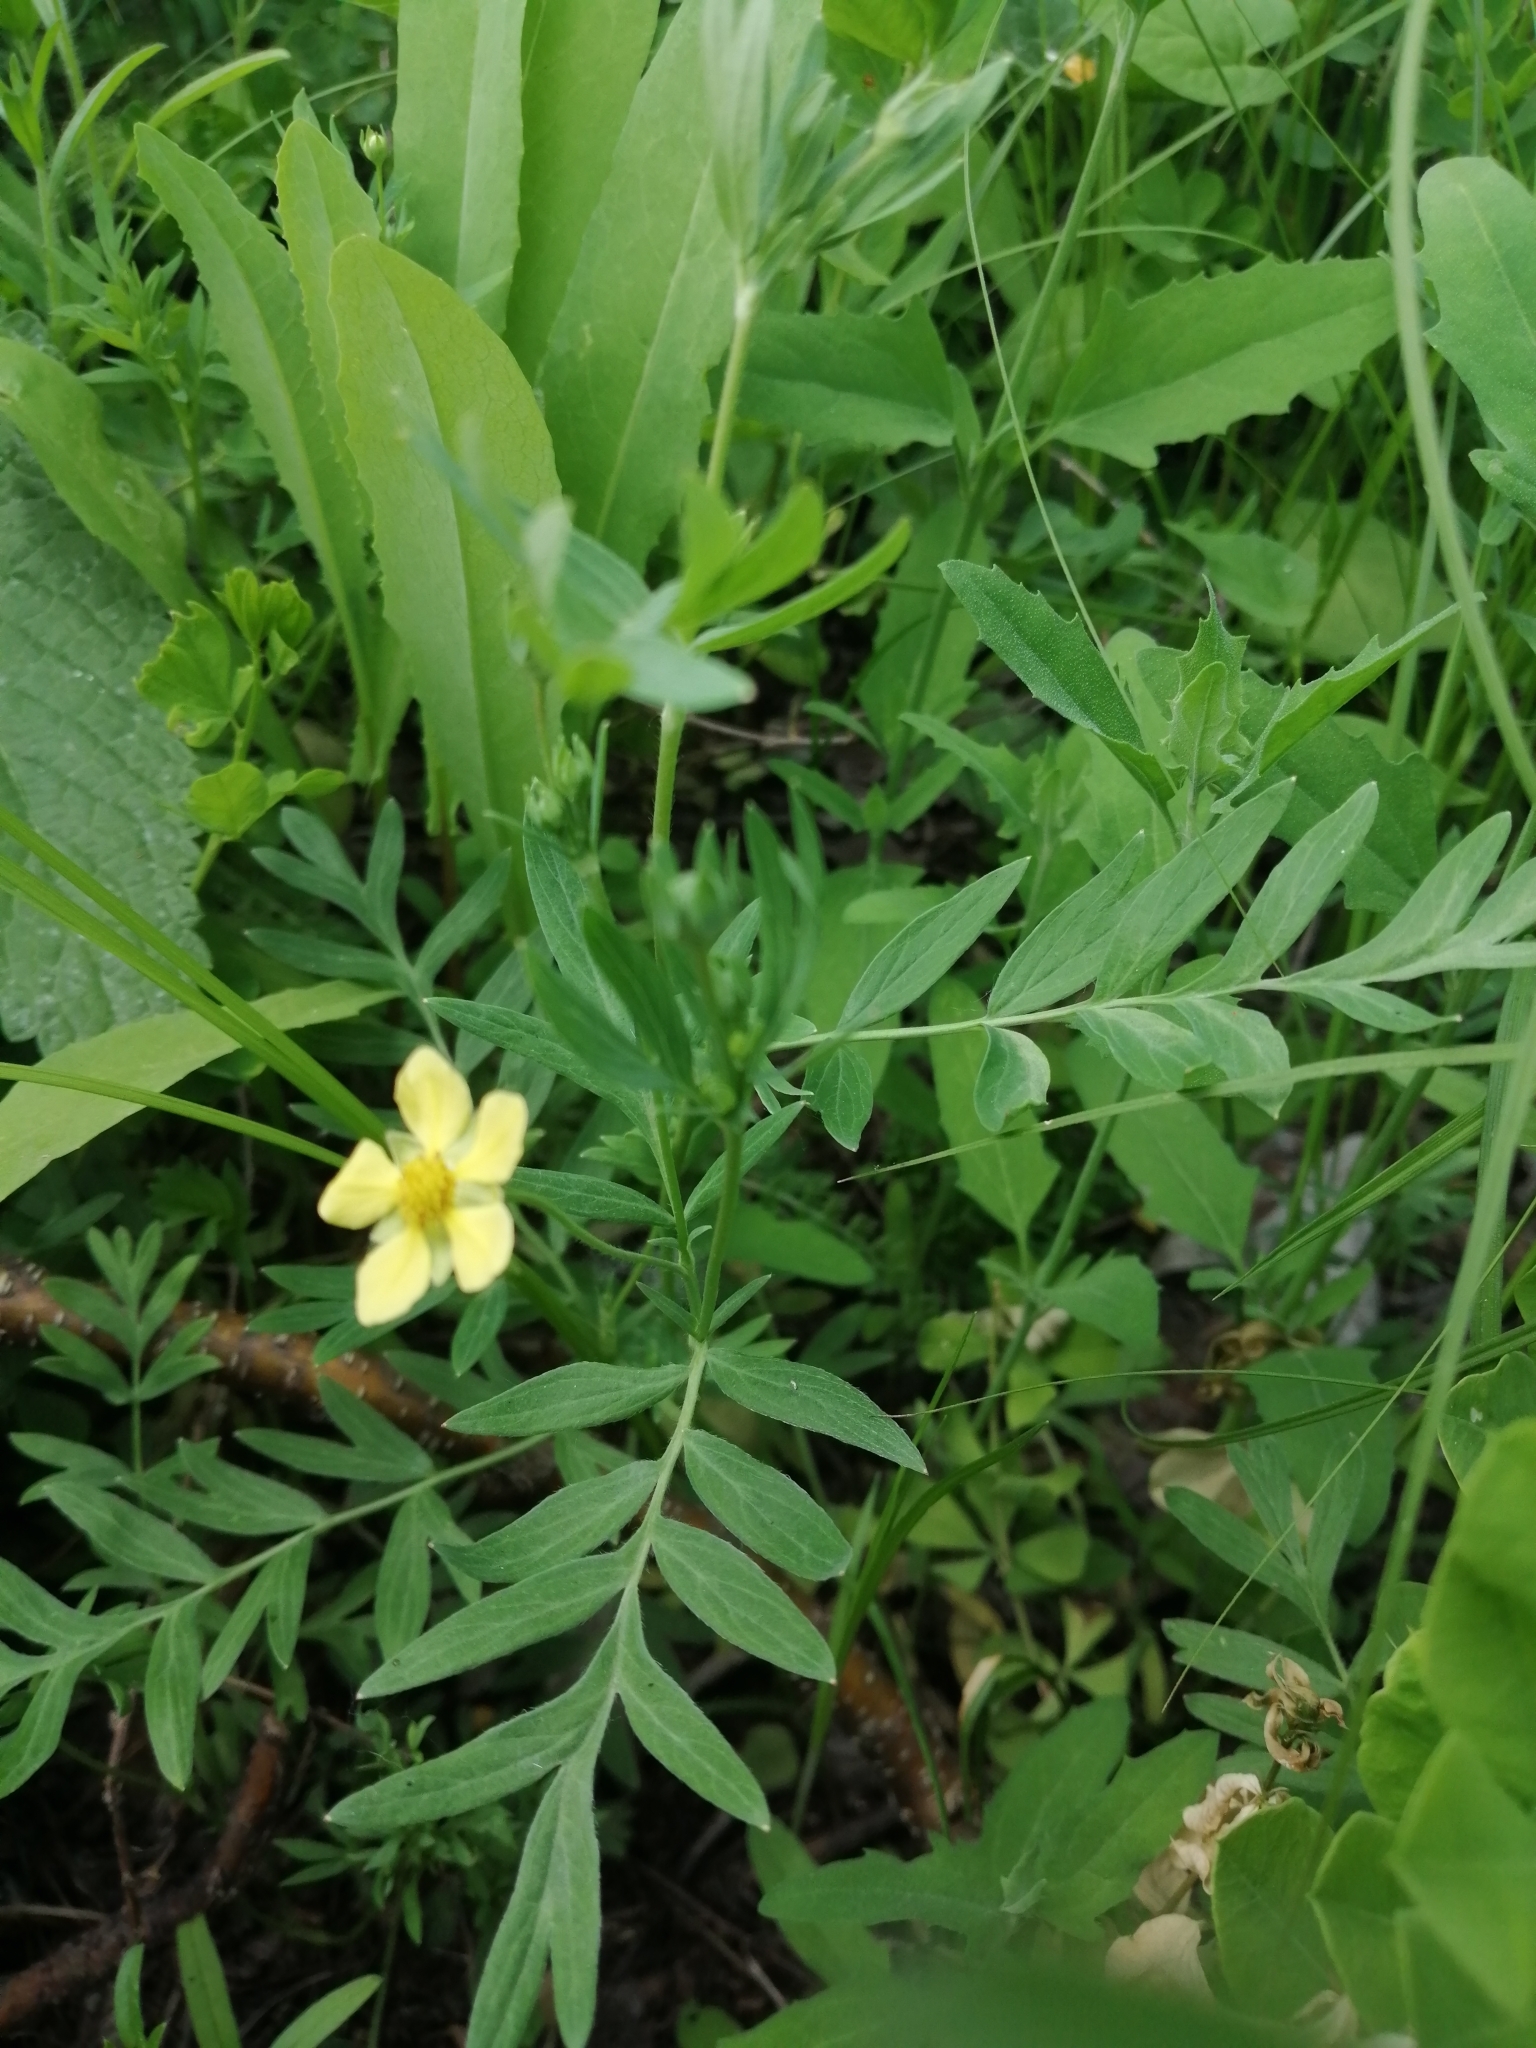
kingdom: Plantae
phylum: Tracheophyta
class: Magnoliopsida
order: Rosales
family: Rosaceae
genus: Sibbaldianthe
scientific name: Sibbaldianthe bifurca
